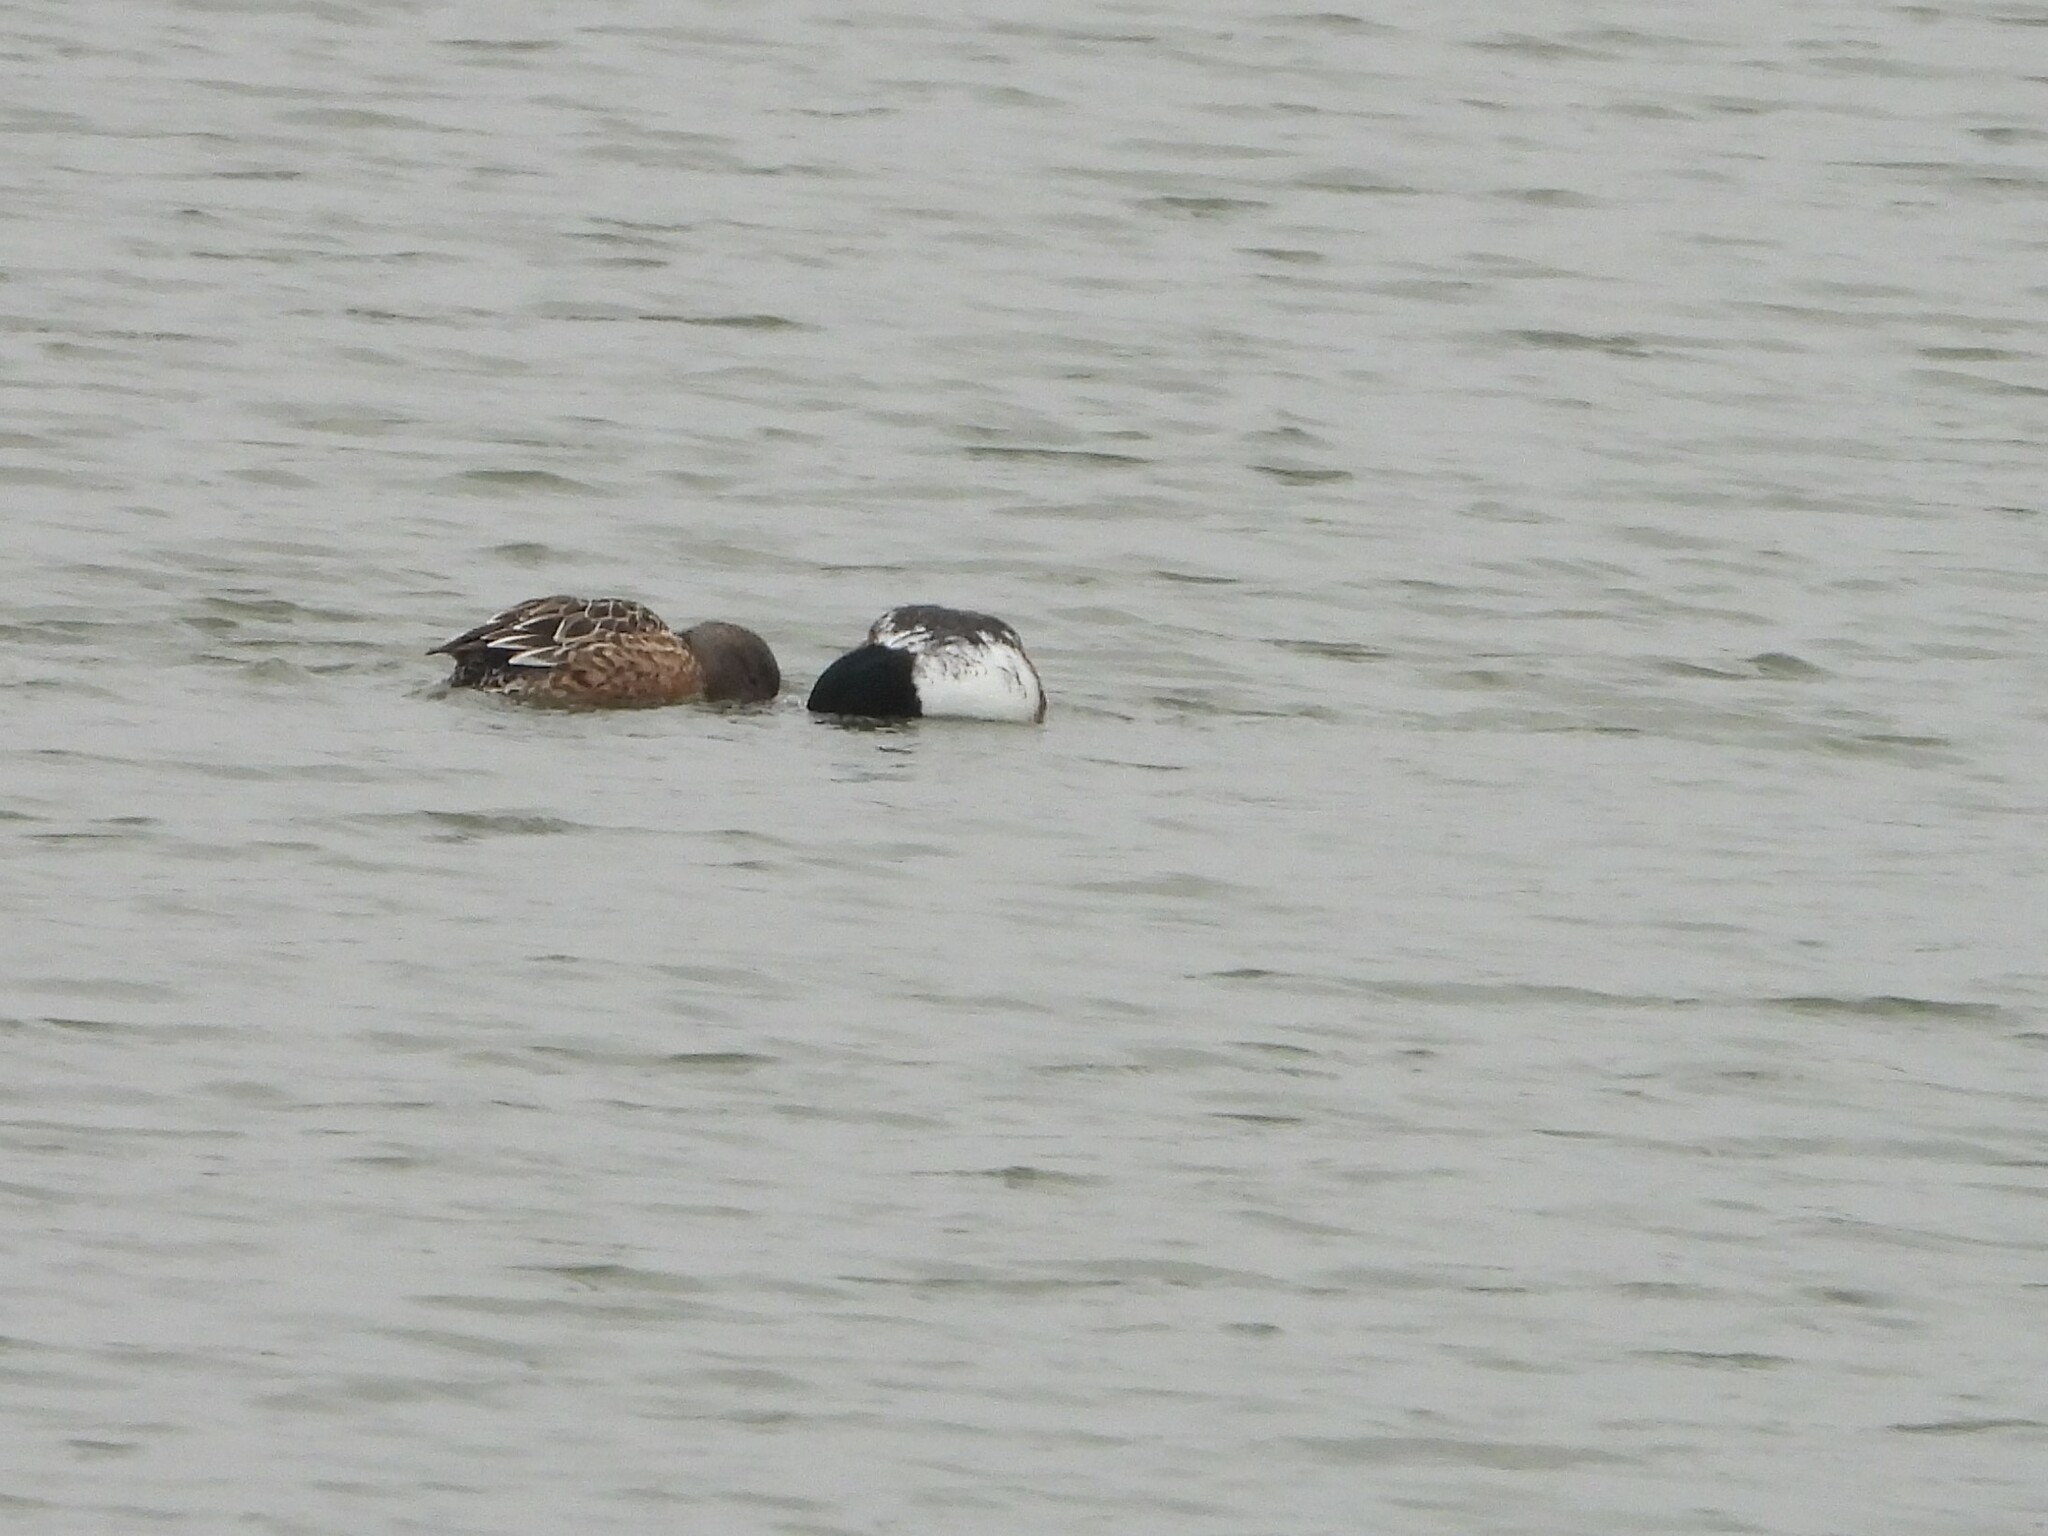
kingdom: Animalia
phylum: Chordata
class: Aves
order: Anseriformes
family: Anatidae
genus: Spatula
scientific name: Spatula clypeata
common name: Northern shoveler
